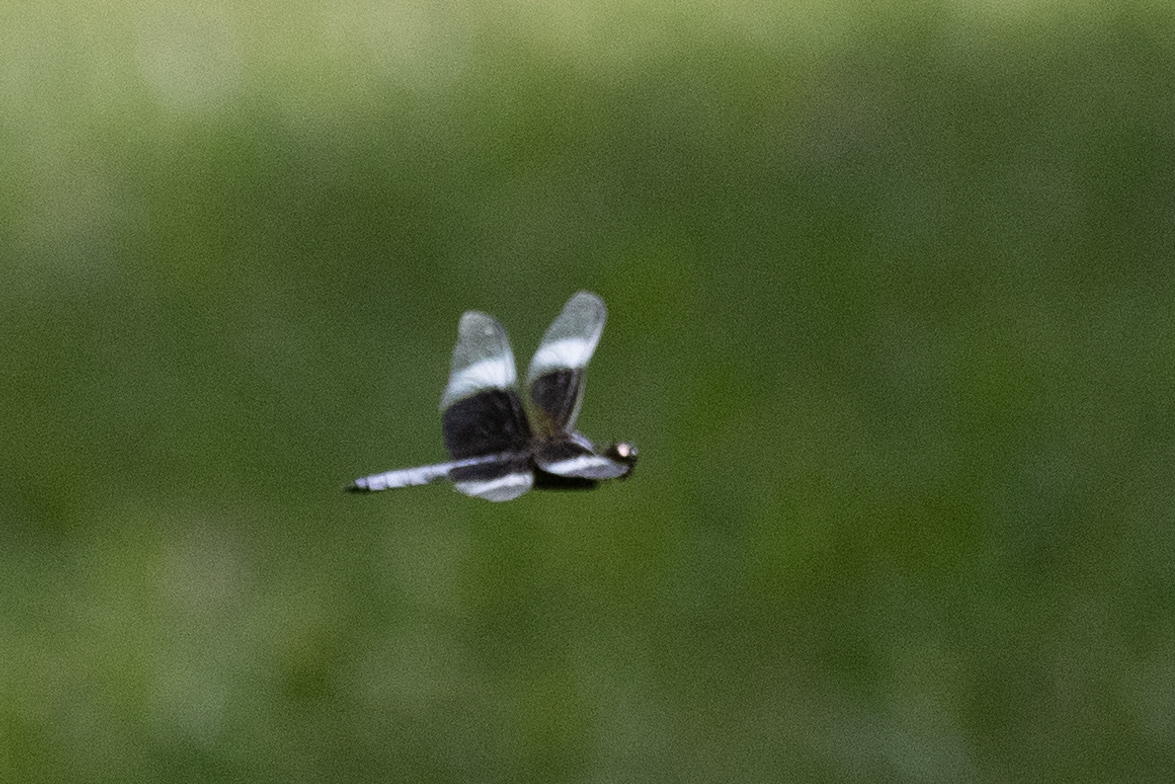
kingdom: Animalia
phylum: Arthropoda
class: Insecta
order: Odonata
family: Libellulidae
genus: Libellula
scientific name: Libellula luctuosa
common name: Widow skimmer
